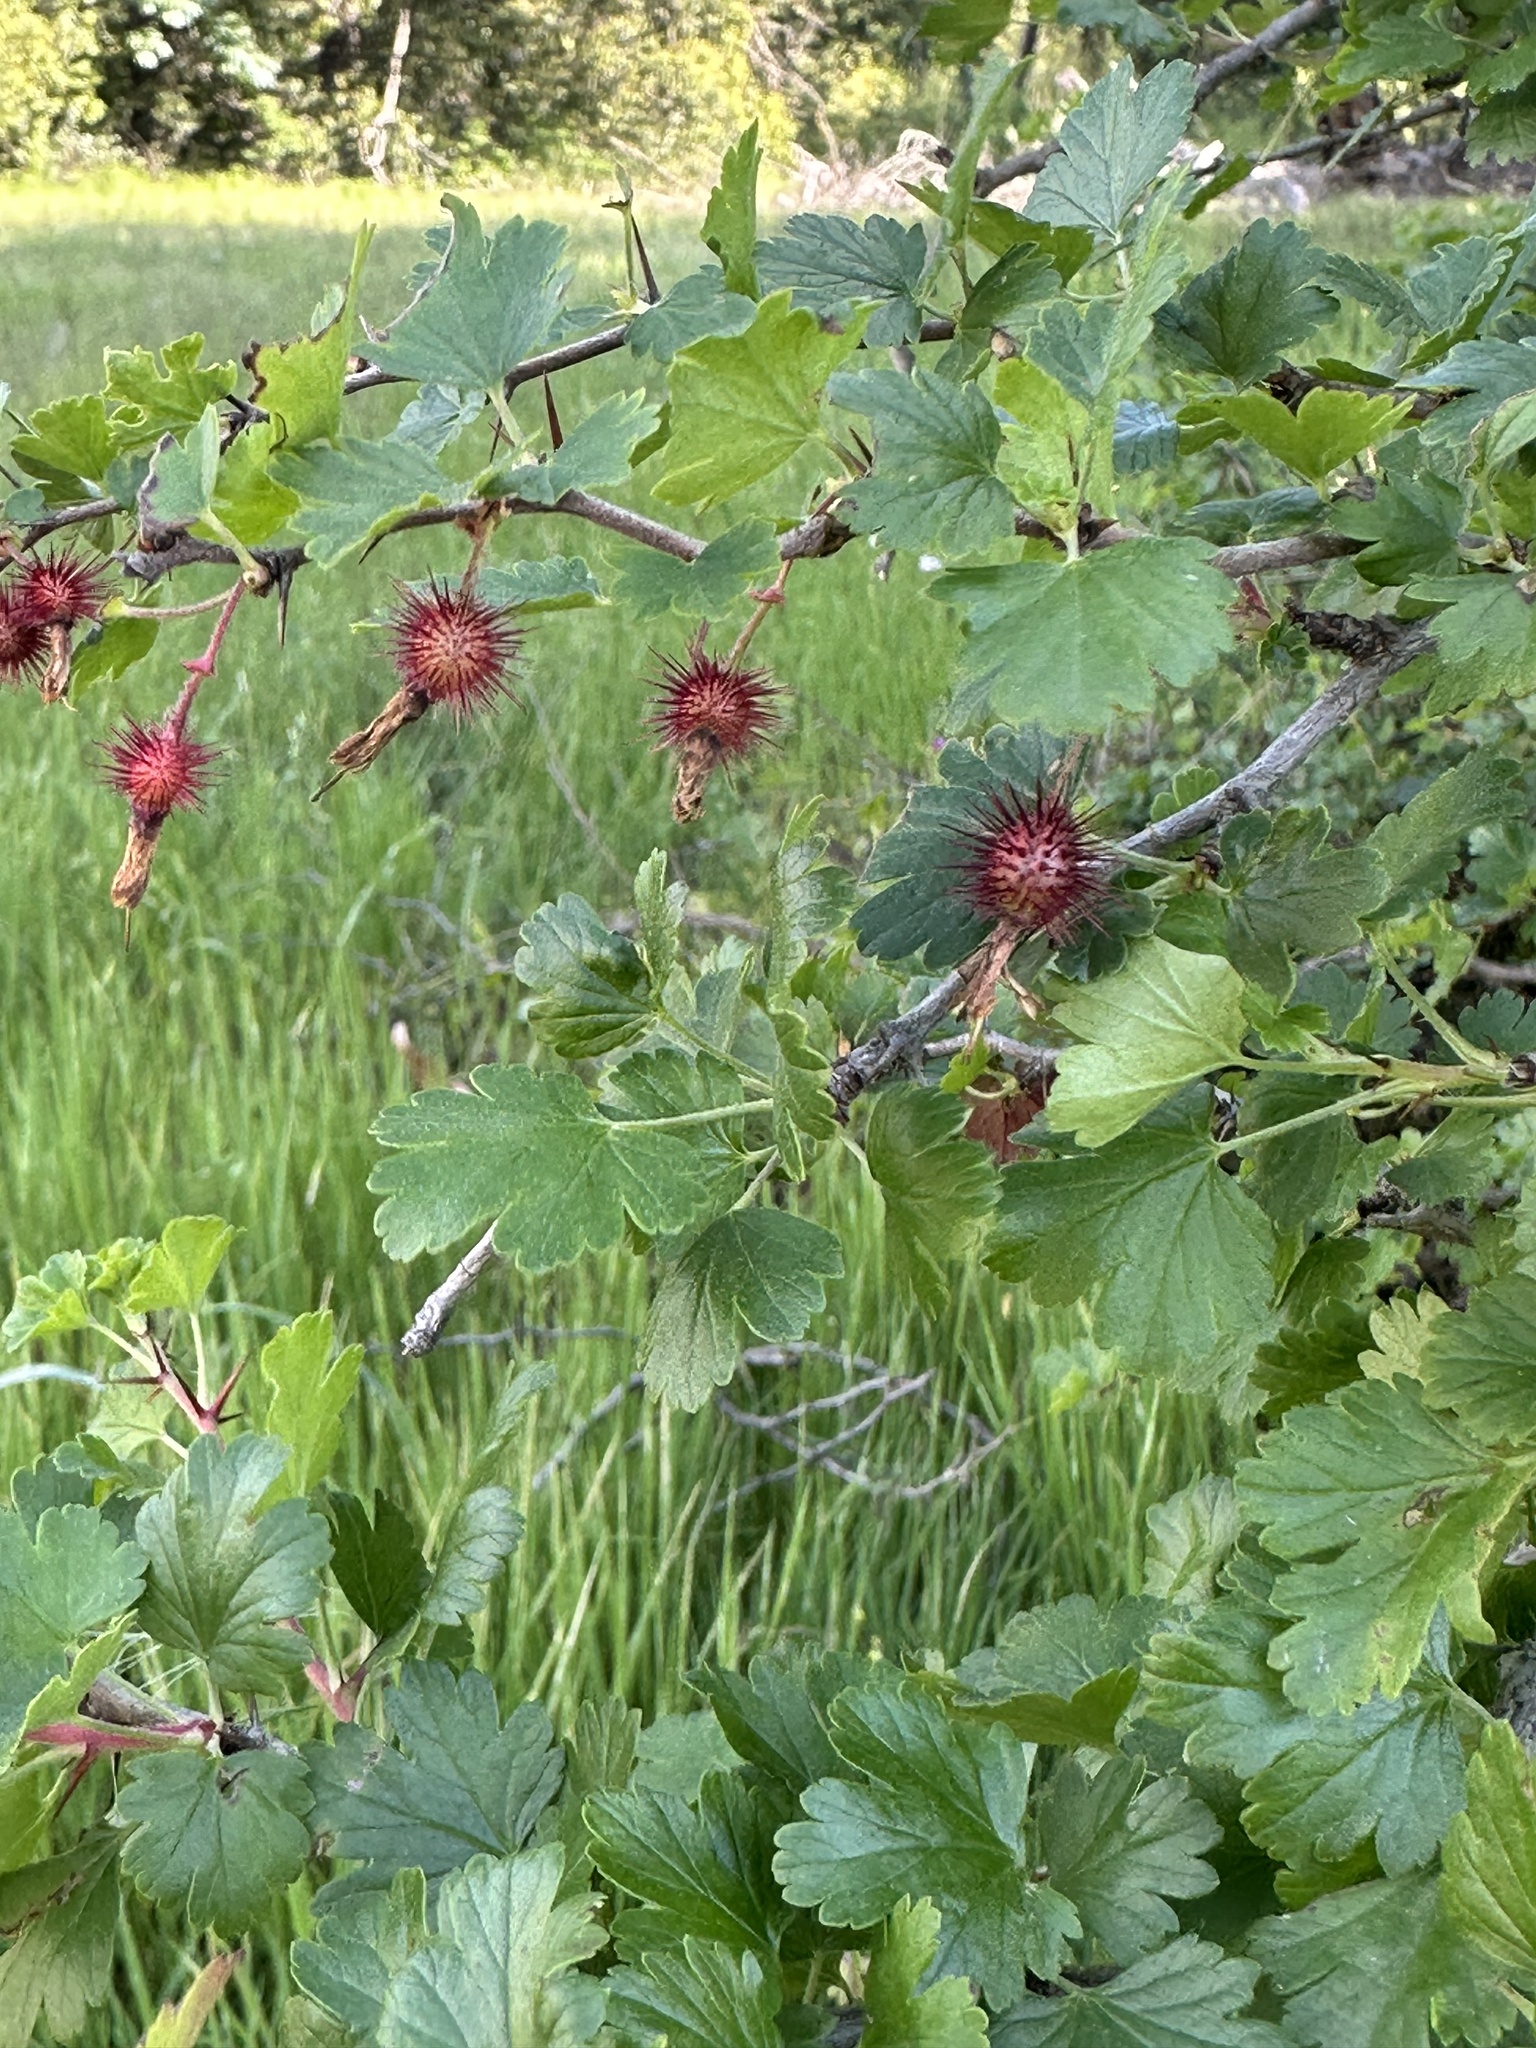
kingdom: Plantae
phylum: Tracheophyta
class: Magnoliopsida
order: Saxifragales
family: Grossulariaceae
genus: Ribes
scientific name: Ribes californicum
